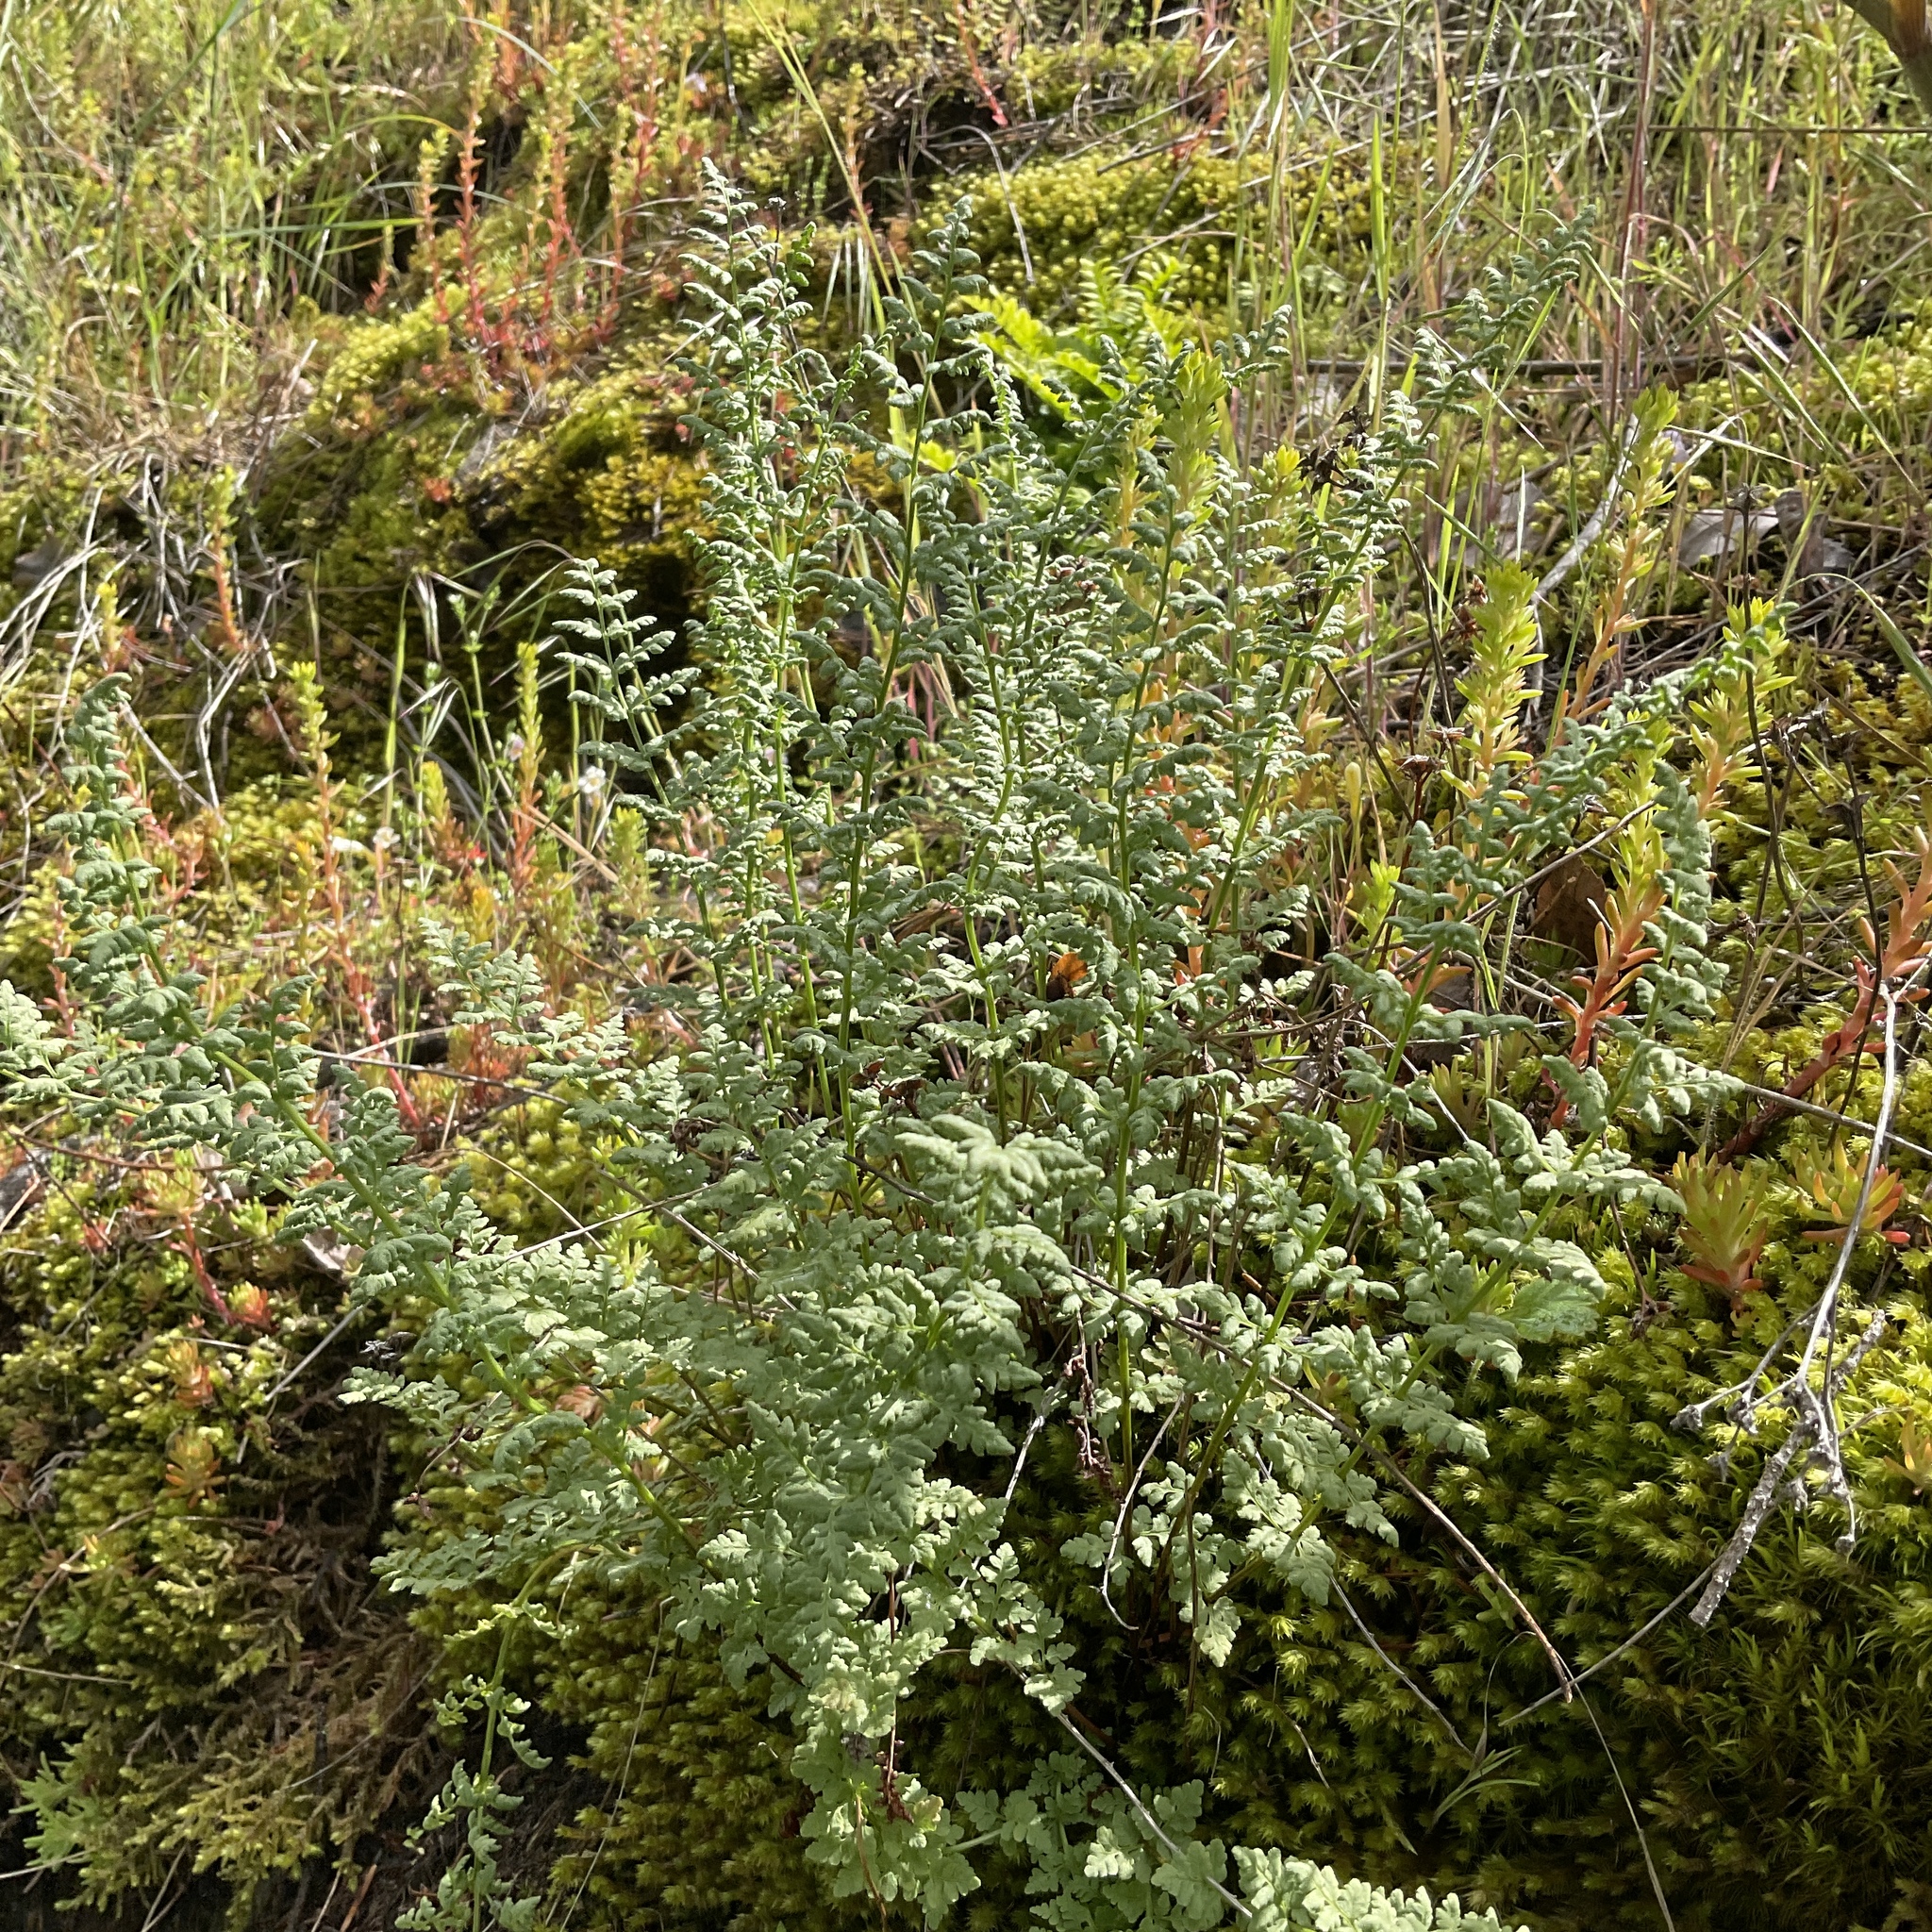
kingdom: Plantae
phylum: Tracheophyta
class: Polypodiopsida
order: Polypodiales
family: Woodsiaceae
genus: Physematium
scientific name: Physematium oreganum
